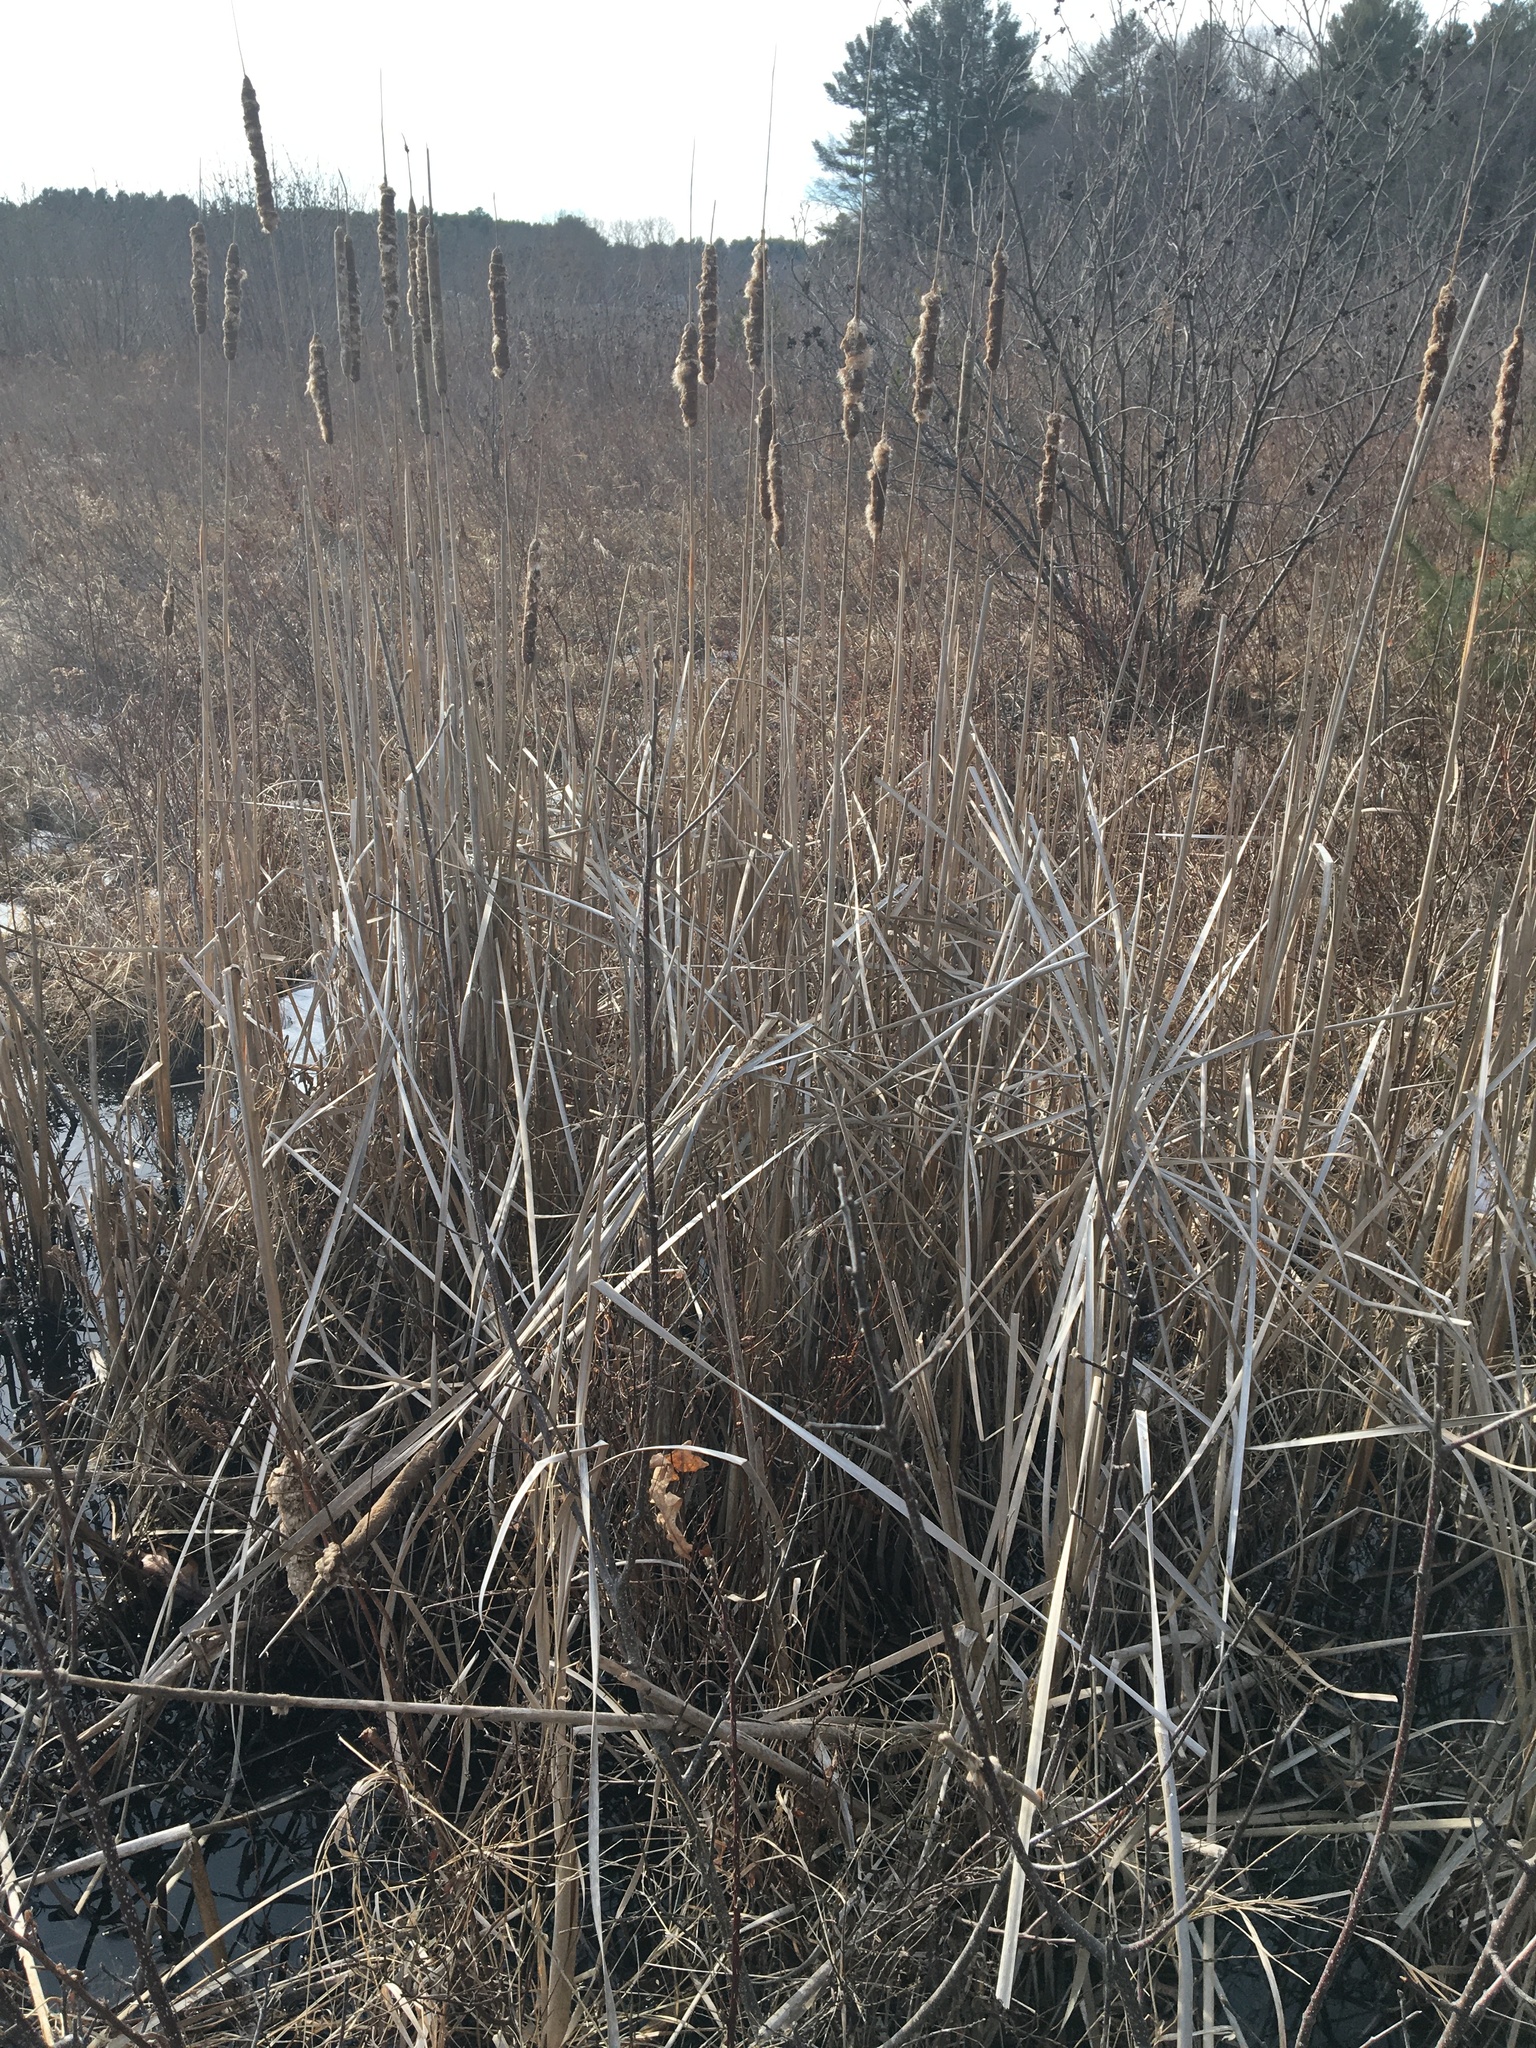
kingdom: Plantae
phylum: Tracheophyta
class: Liliopsida
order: Poales
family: Typhaceae
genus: Typha
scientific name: Typha
